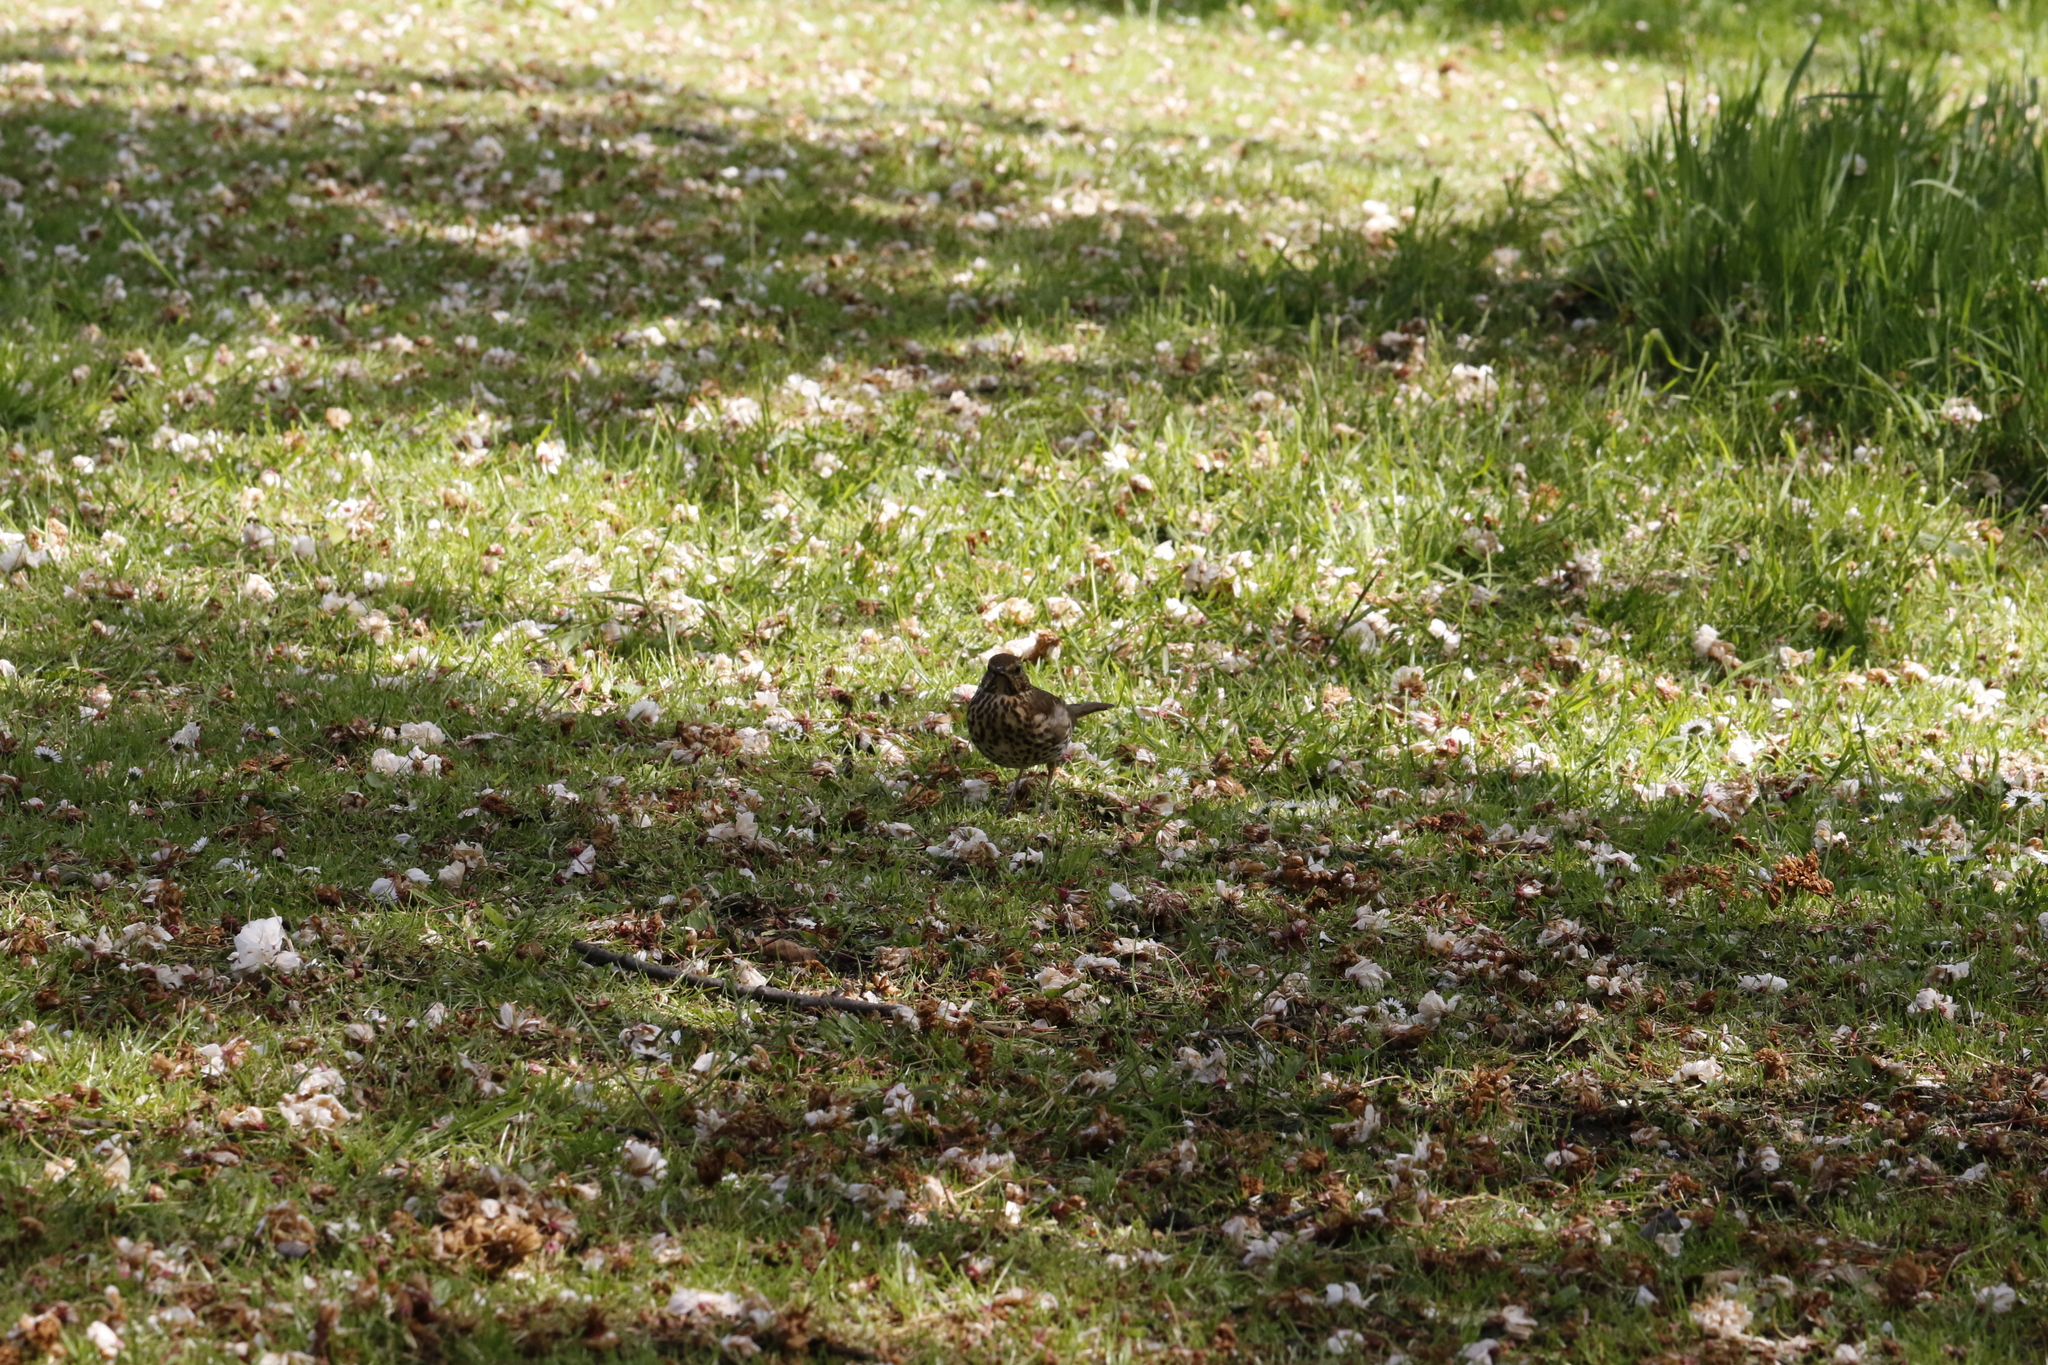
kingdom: Animalia
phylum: Chordata
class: Aves
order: Passeriformes
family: Turdidae
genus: Turdus
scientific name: Turdus philomelos
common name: Song thrush
